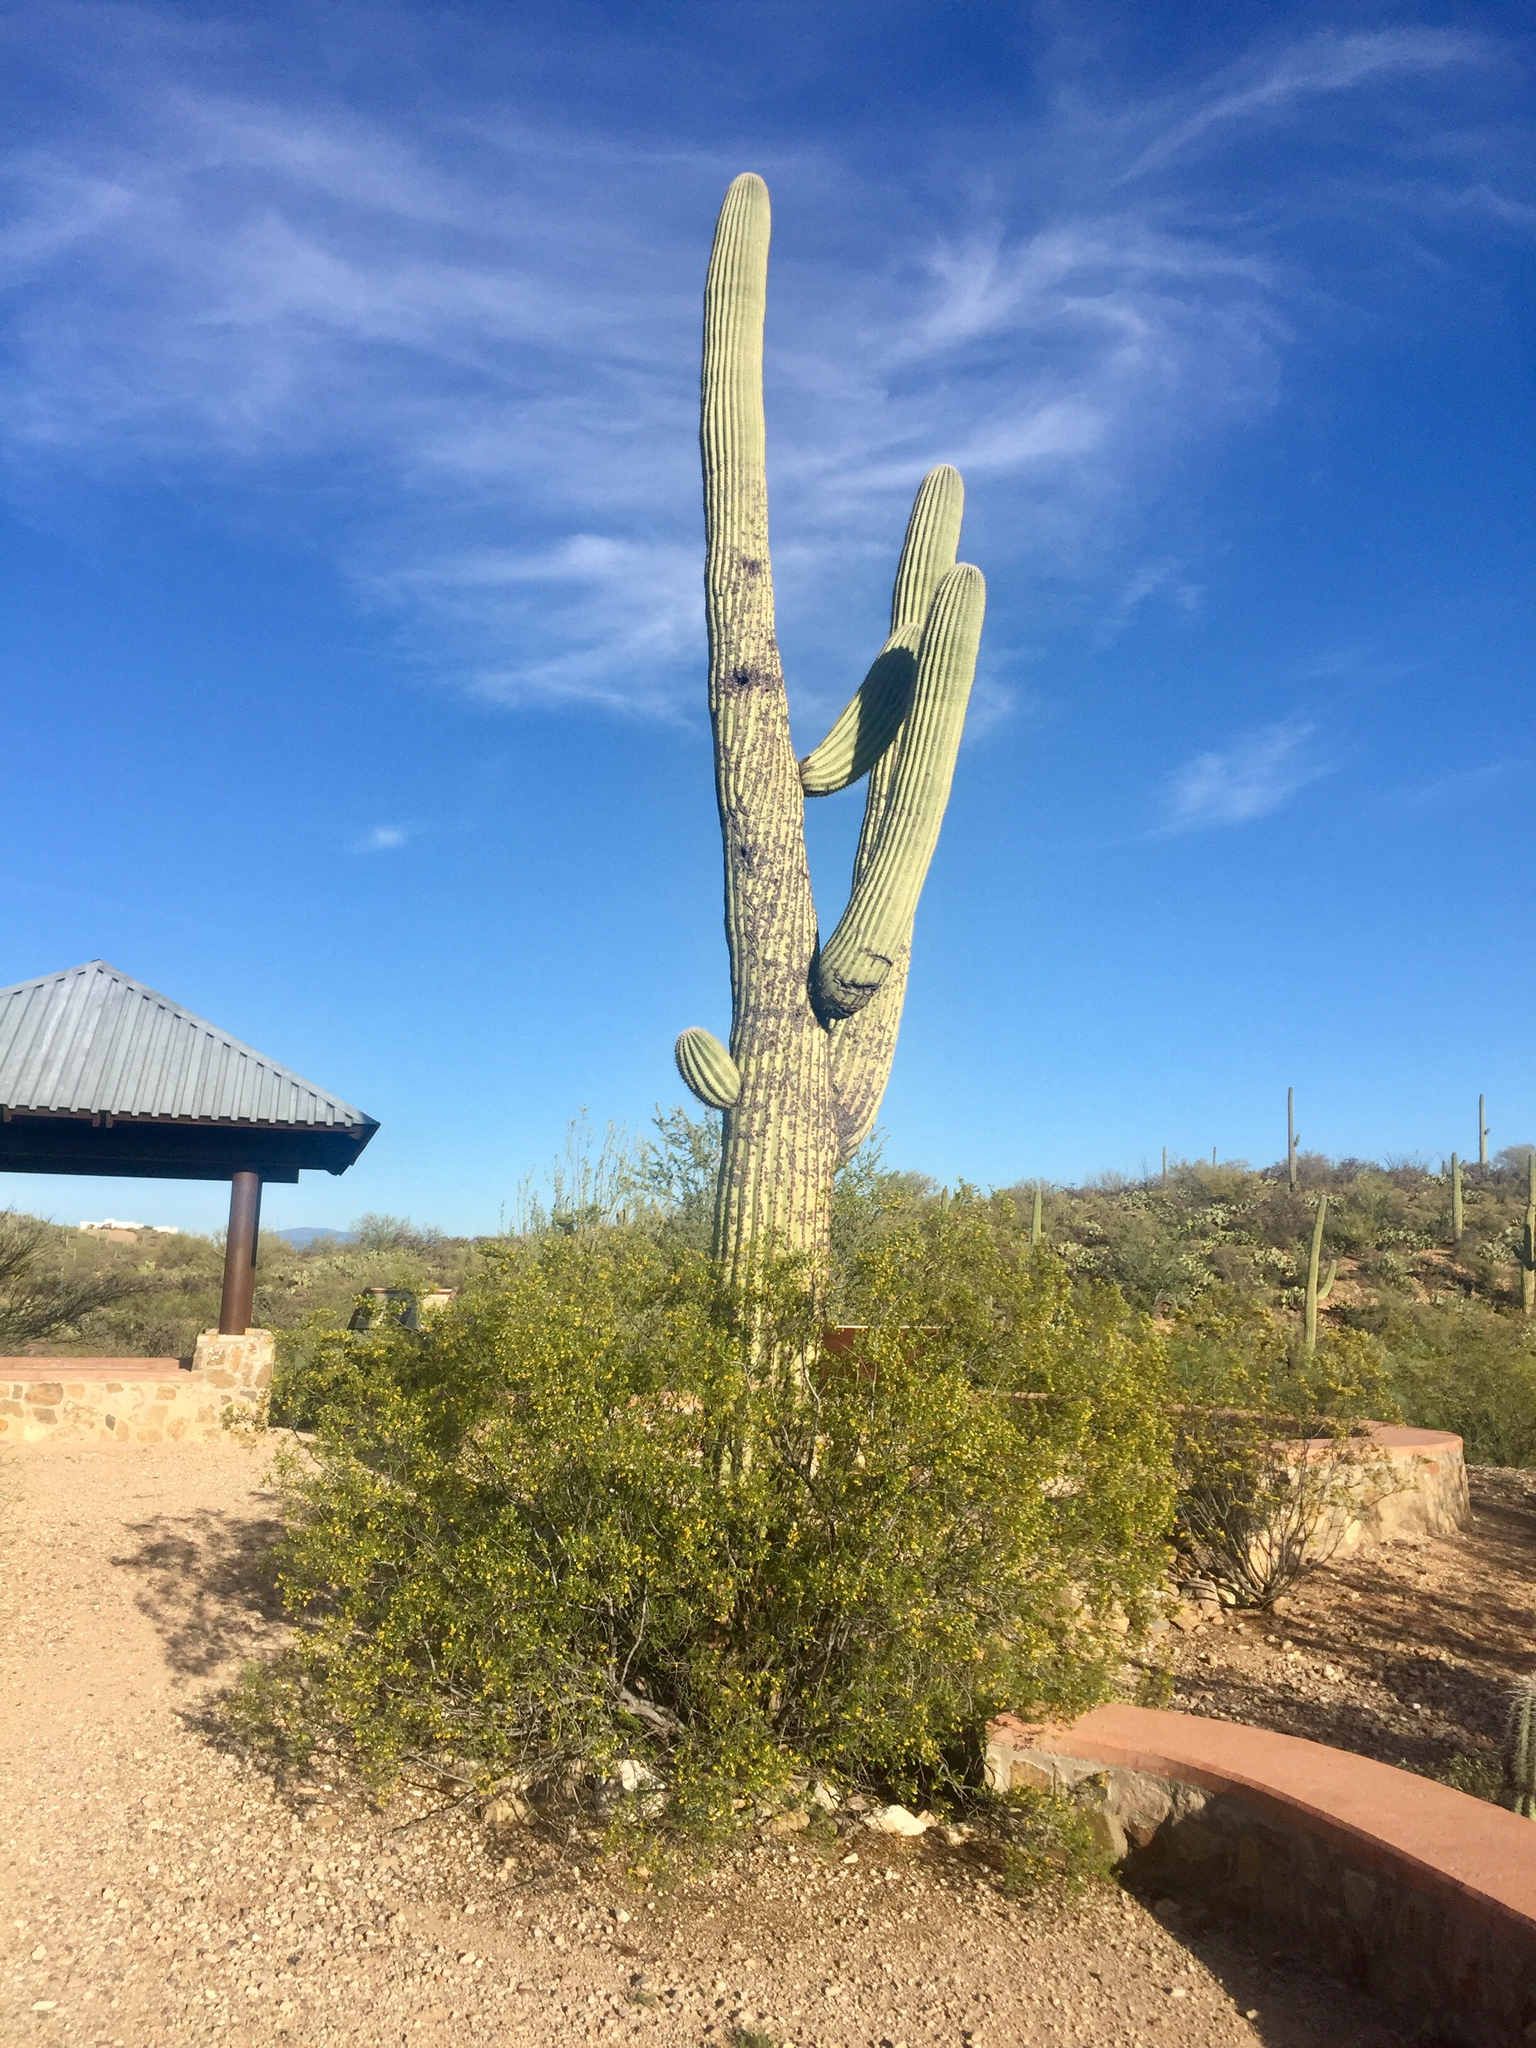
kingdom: Plantae
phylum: Tracheophyta
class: Magnoliopsida
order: Caryophyllales
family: Cactaceae
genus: Carnegiea
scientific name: Carnegiea gigantea
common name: Saguaro
